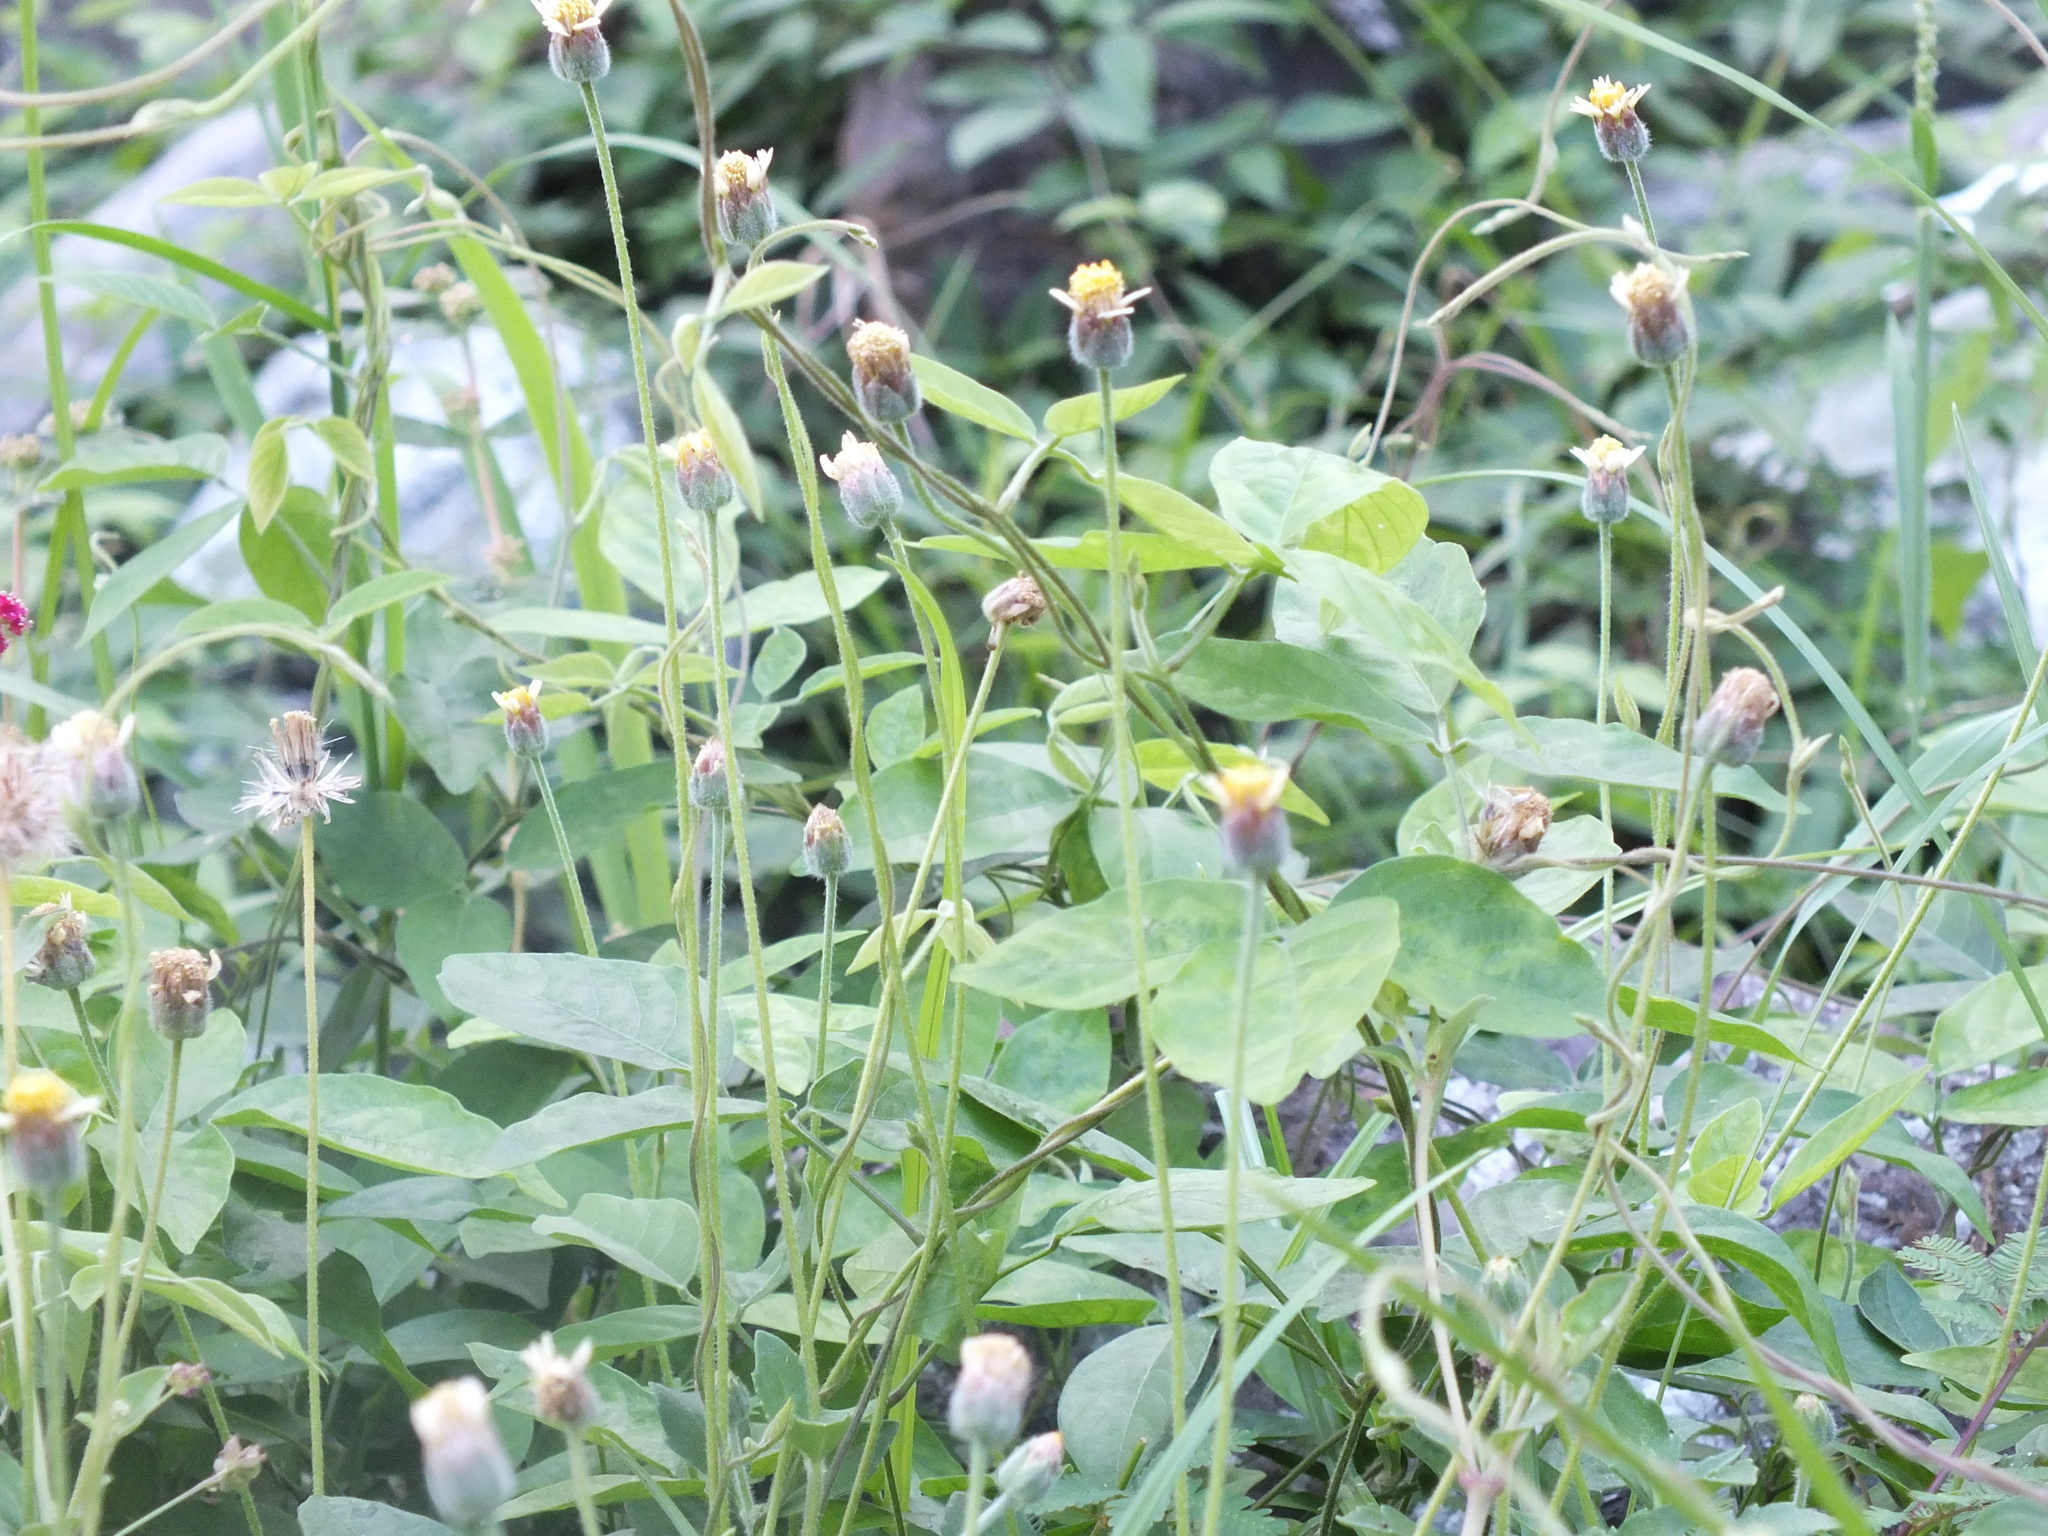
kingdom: Plantae
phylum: Tracheophyta
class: Magnoliopsida
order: Asterales
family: Asteraceae
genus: Tridax
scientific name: Tridax procumbens
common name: Coatbuttons
